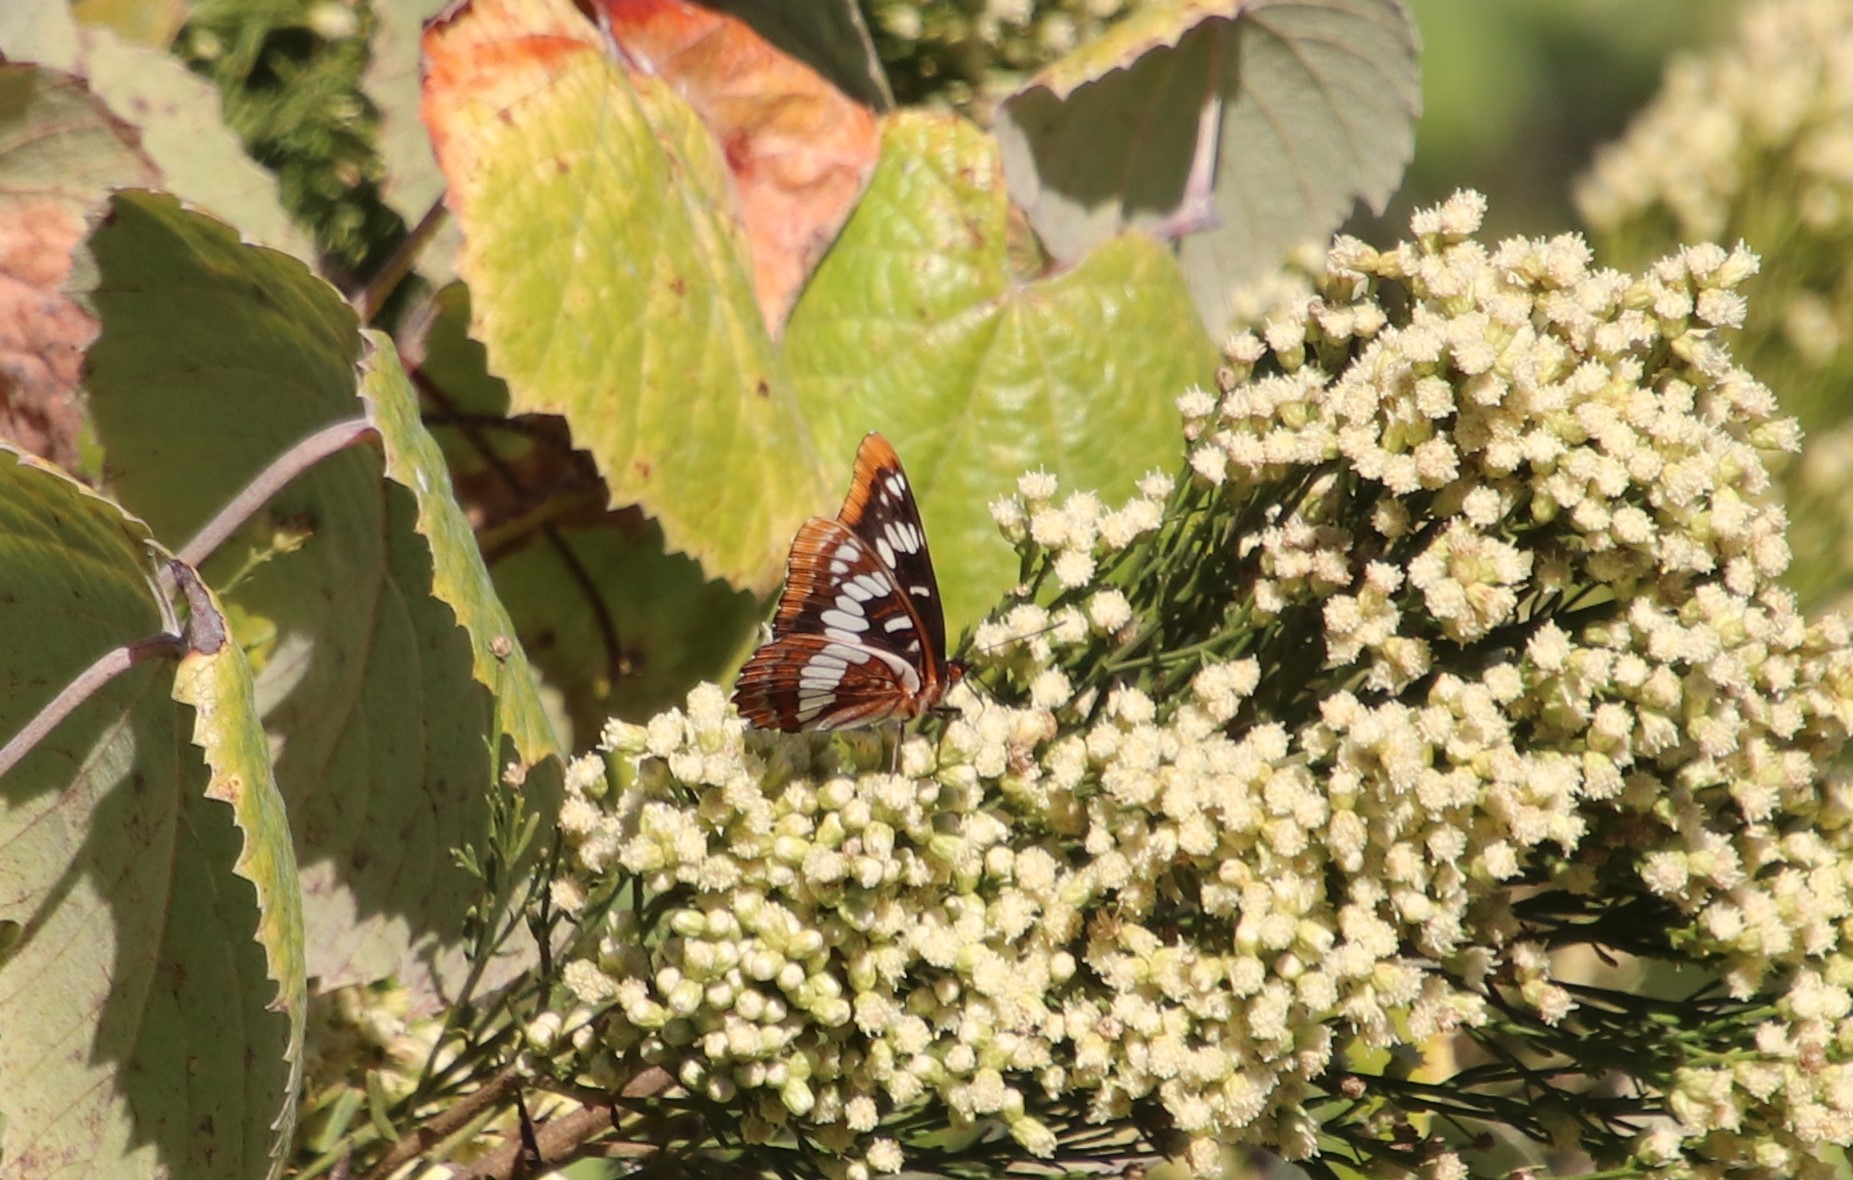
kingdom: Animalia
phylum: Arthropoda
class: Insecta
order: Lepidoptera
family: Nymphalidae
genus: Limenitis
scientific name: Limenitis lorquini
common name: Lorquin's admiral
